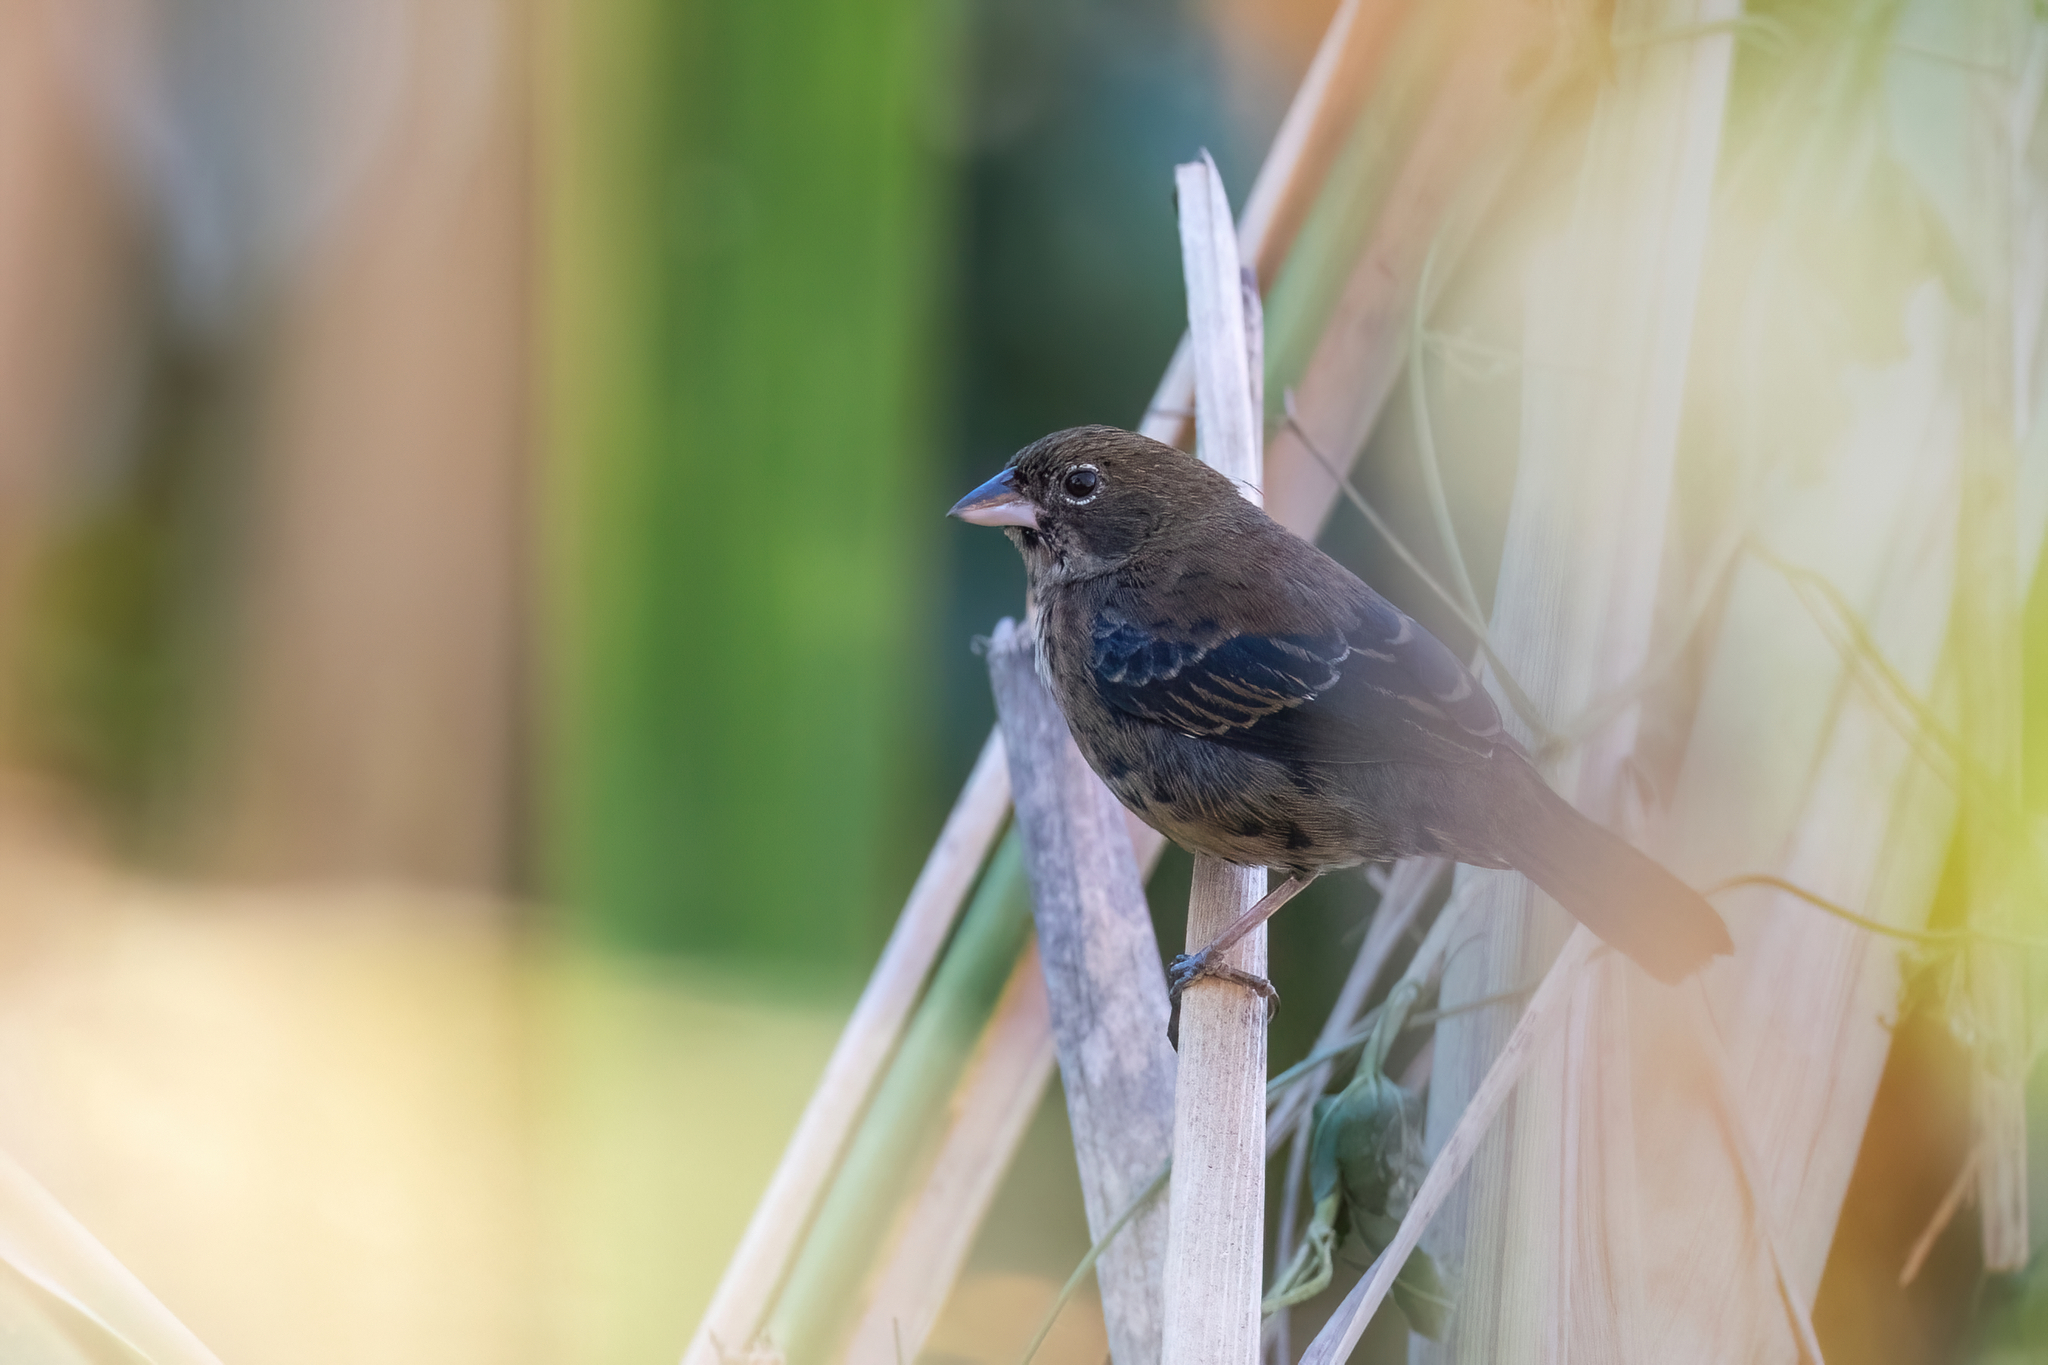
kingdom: Animalia
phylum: Chordata
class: Aves
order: Passeriformes
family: Thraupidae
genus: Volatinia
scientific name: Volatinia jacarina
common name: Blue-black grassquit
